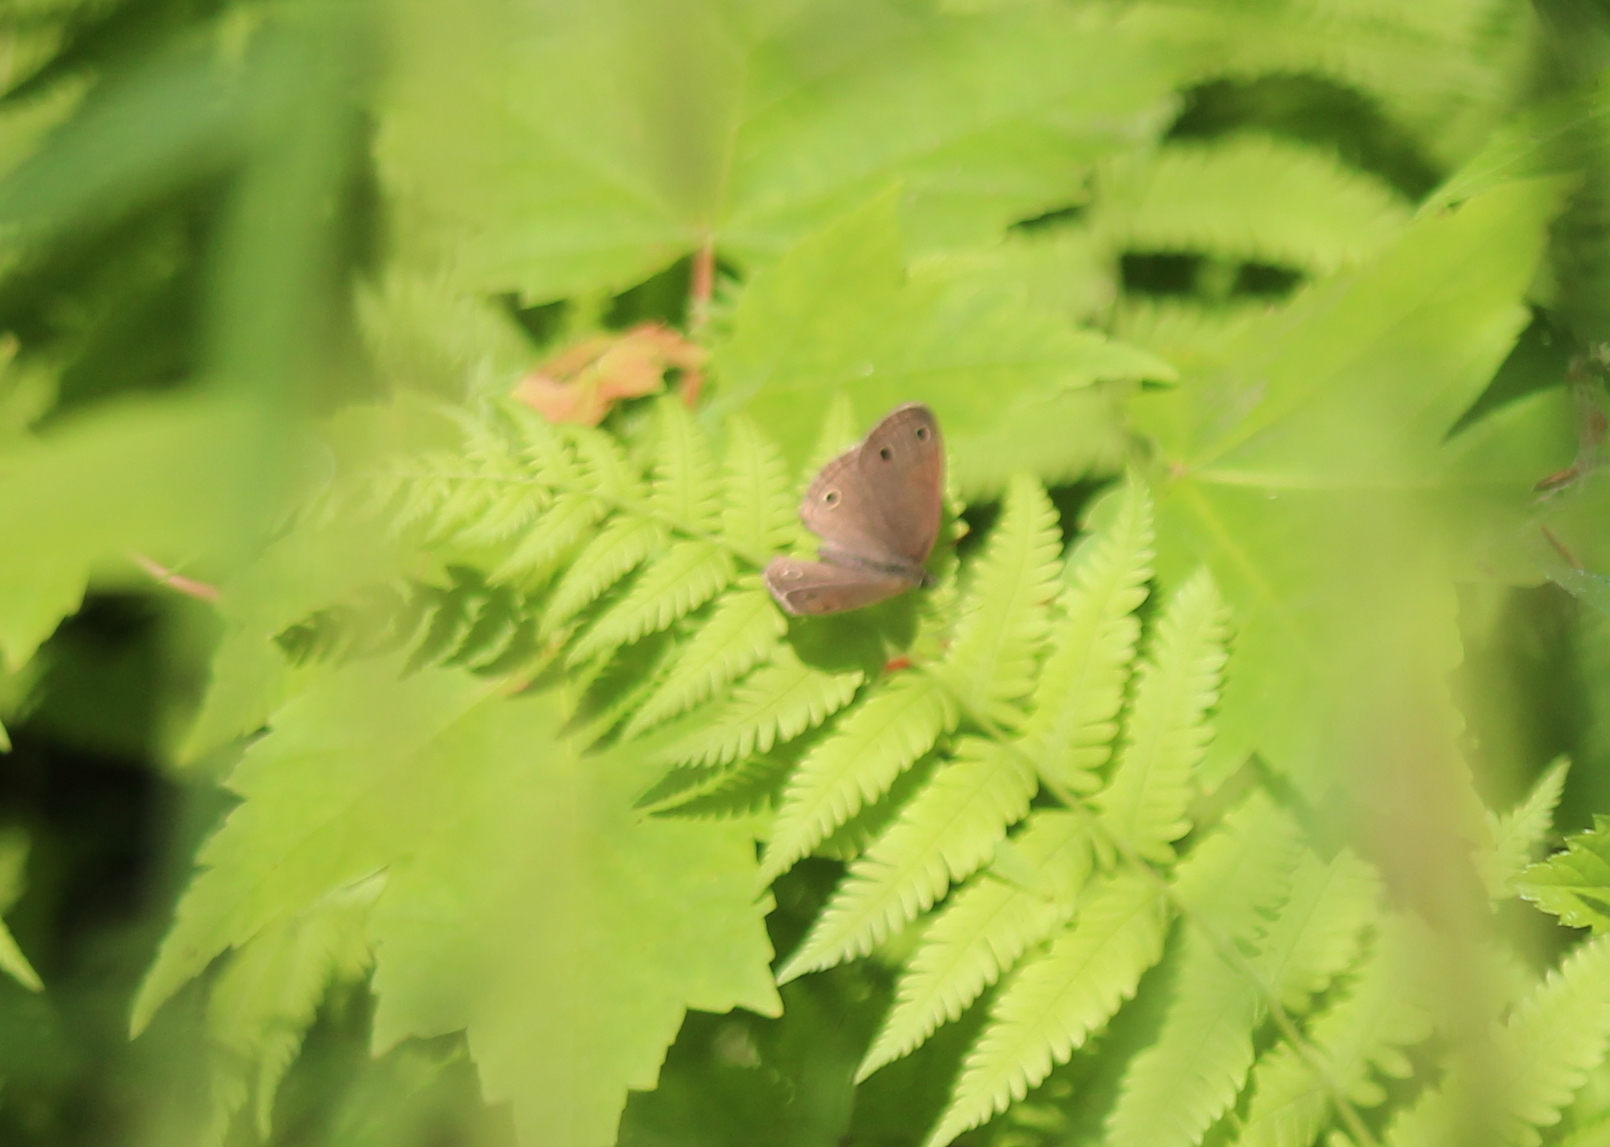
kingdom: Animalia
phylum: Arthropoda
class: Insecta
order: Lepidoptera
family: Nymphalidae
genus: Euptychia
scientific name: Euptychia cymela
